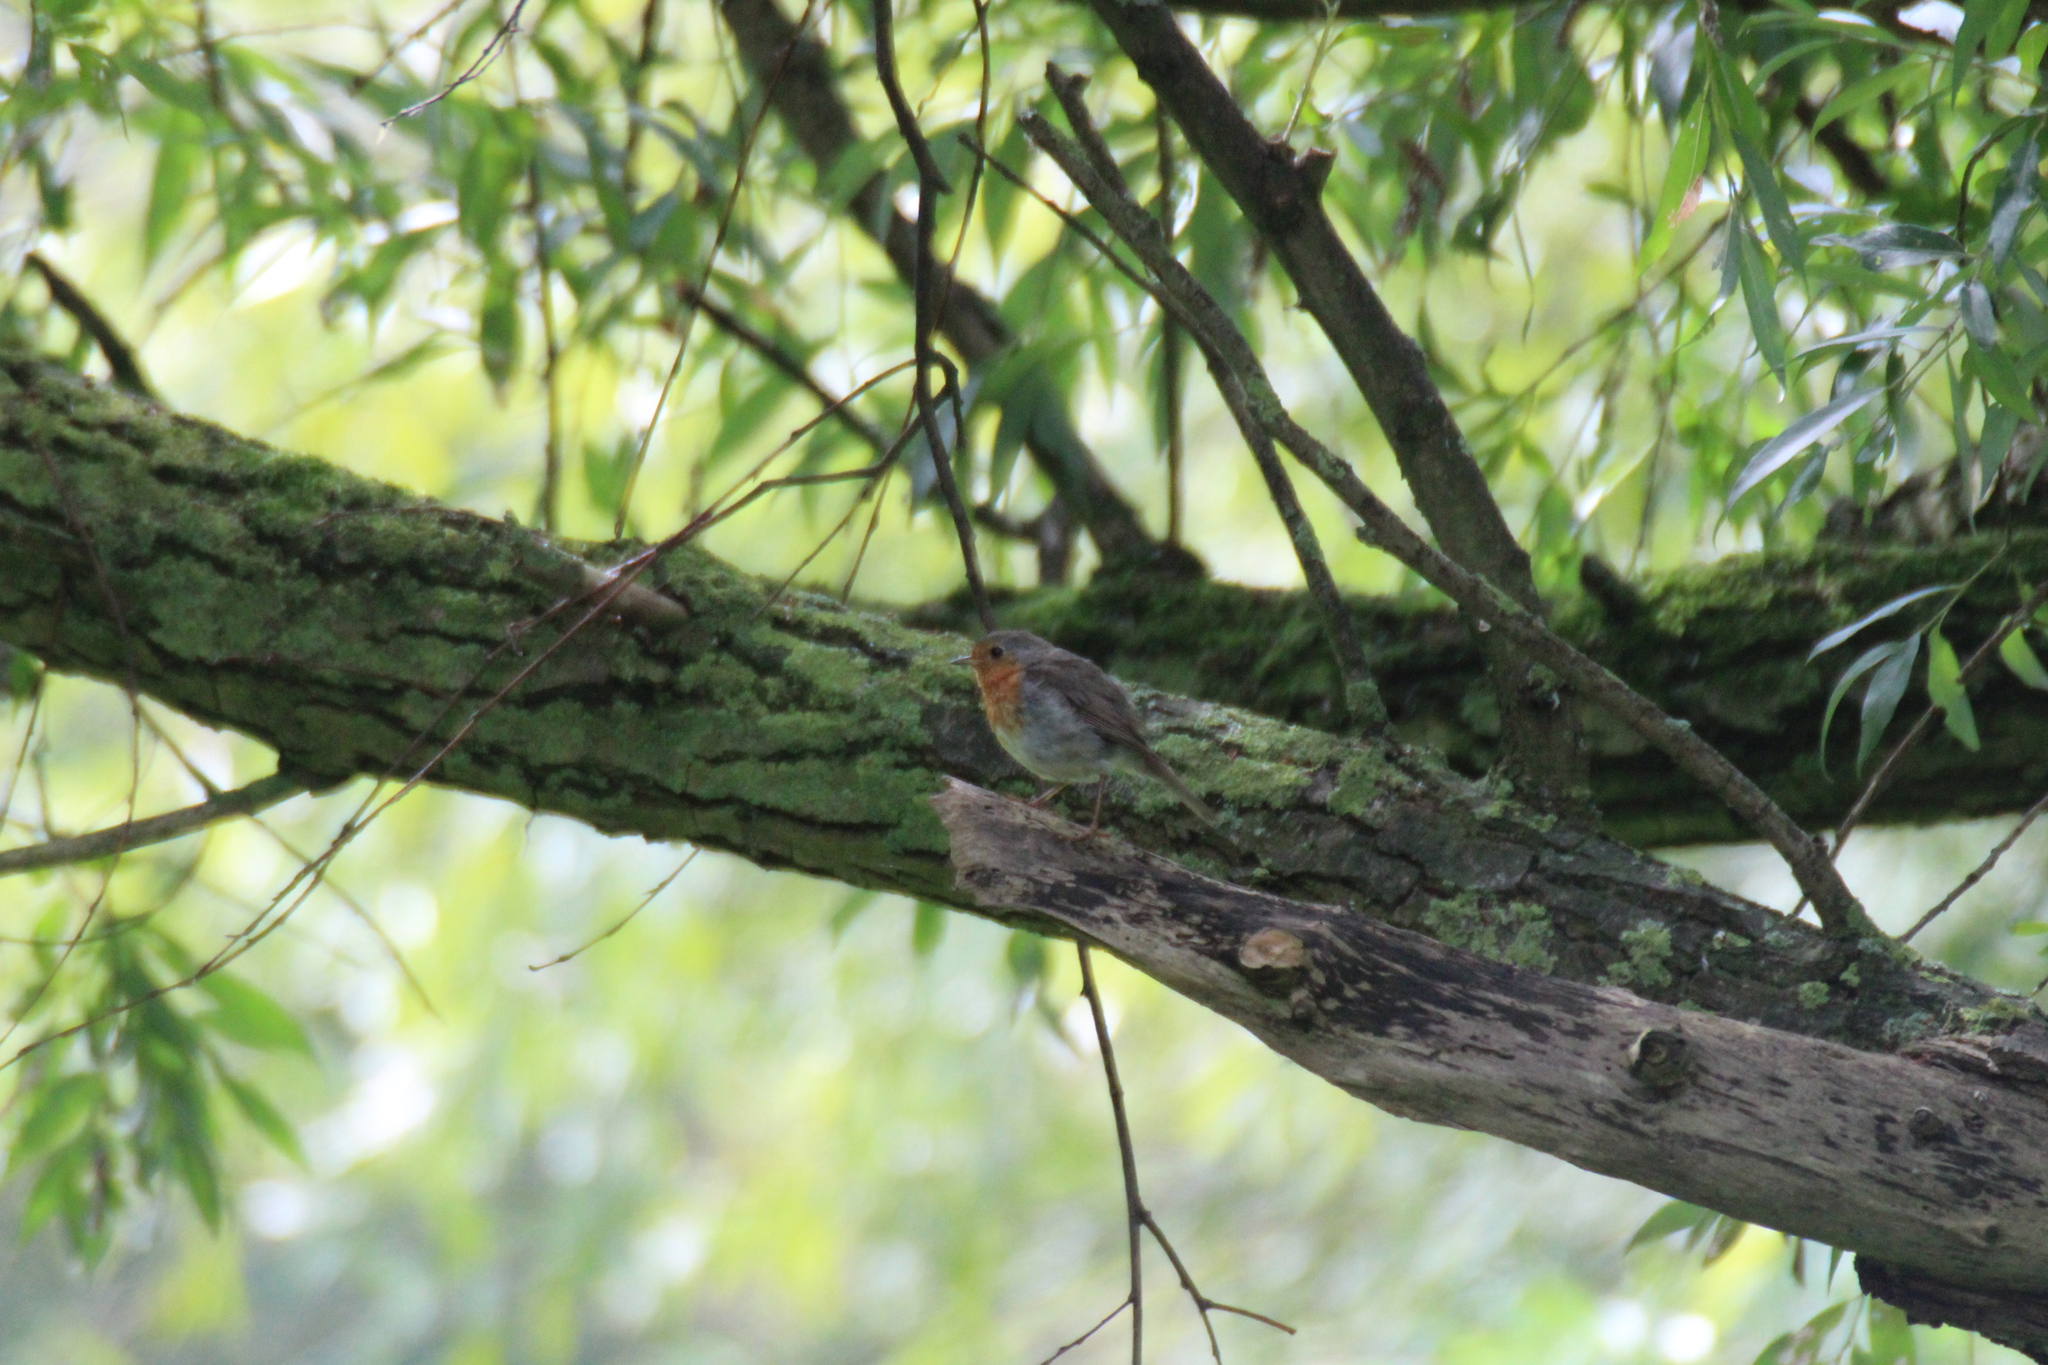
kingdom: Animalia
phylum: Chordata
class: Aves
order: Passeriformes
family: Muscicapidae
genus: Erithacus
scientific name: Erithacus rubecula
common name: European robin
